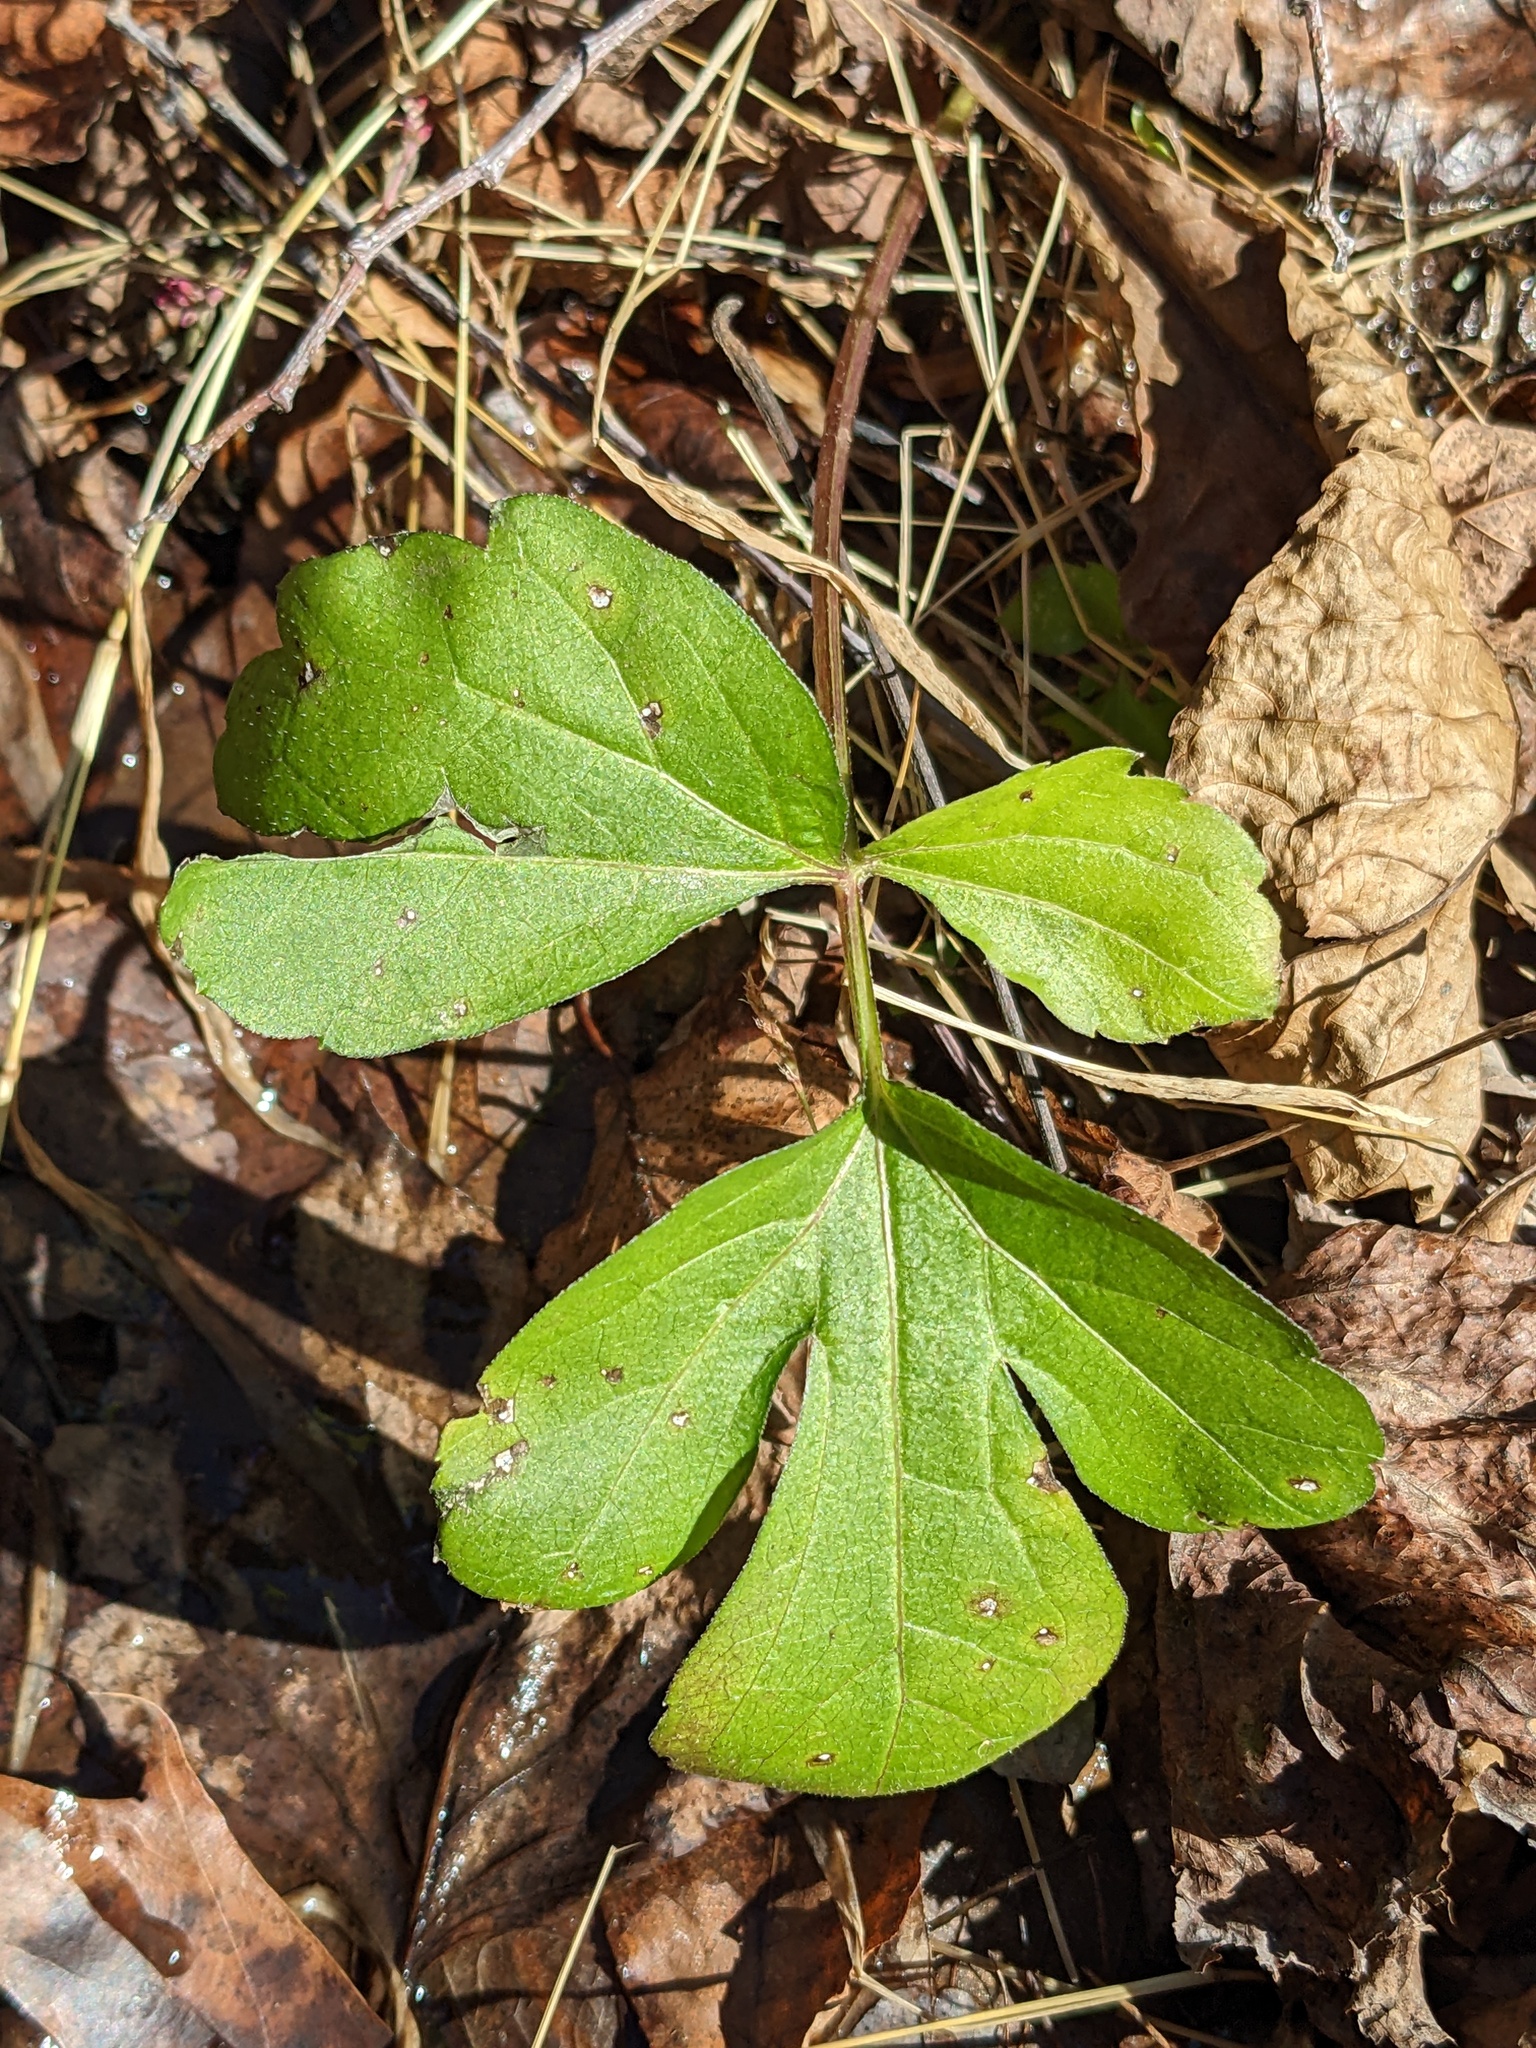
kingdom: Plantae
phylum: Tracheophyta
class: Magnoliopsida
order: Asterales
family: Asteraceae
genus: Rudbeckia
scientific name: Rudbeckia laciniata
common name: Coneflower
